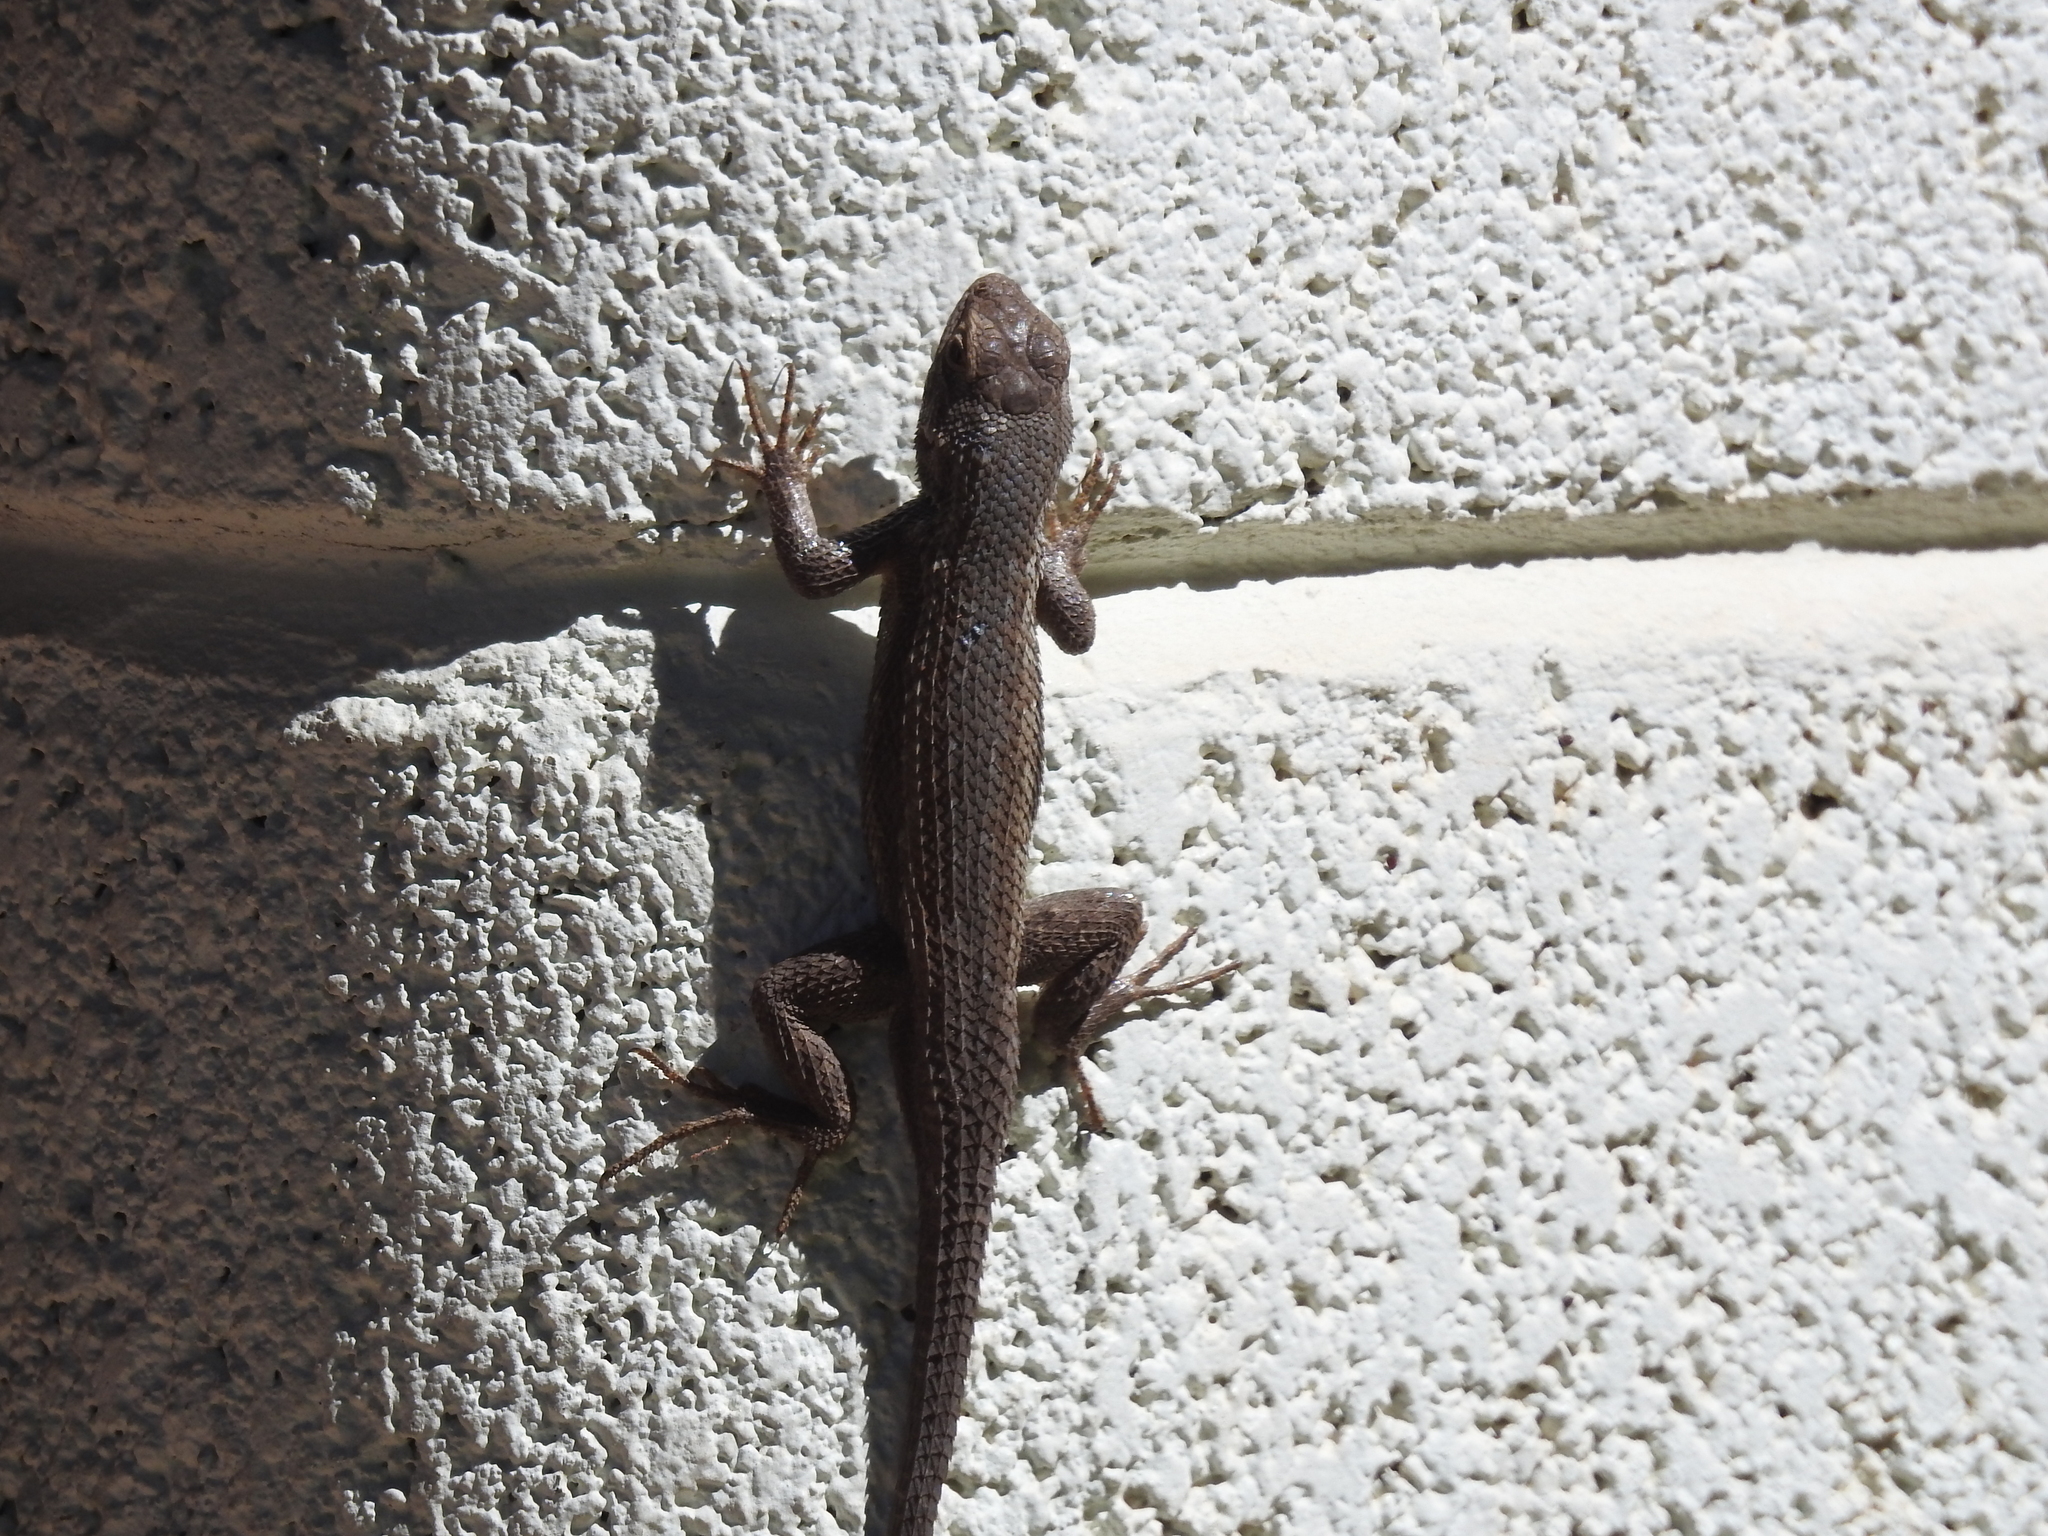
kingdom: Animalia
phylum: Chordata
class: Squamata
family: Phrynosomatidae
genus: Sceloporus
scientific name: Sceloporus tristichus
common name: Plateau fence lizard
